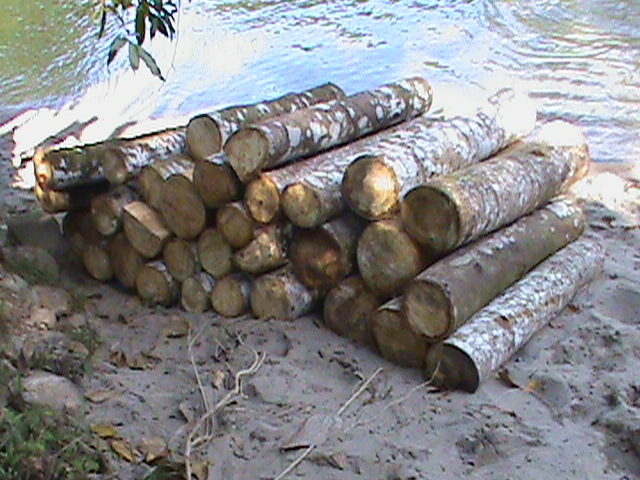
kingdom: Plantae
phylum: Tracheophyta
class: Magnoliopsida
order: Malvales
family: Malvaceae
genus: Ochroma
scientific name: Ochroma pyramidale
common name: Balsa
